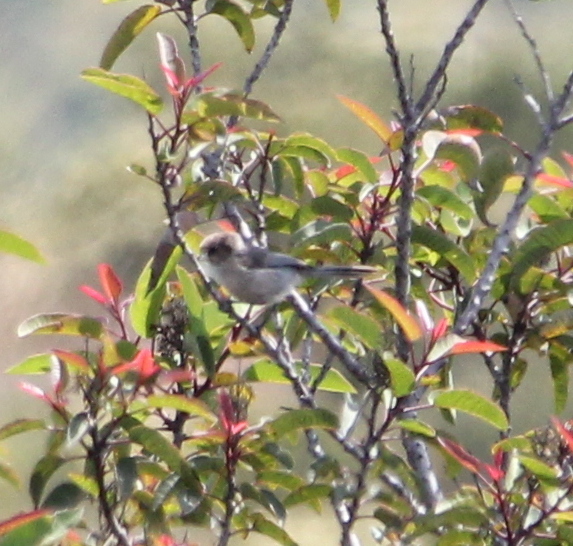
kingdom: Animalia
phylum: Chordata
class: Aves
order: Passeriformes
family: Aegithalidae
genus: Psaltriparus
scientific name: Psaltriparus minimus
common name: American bushtit
